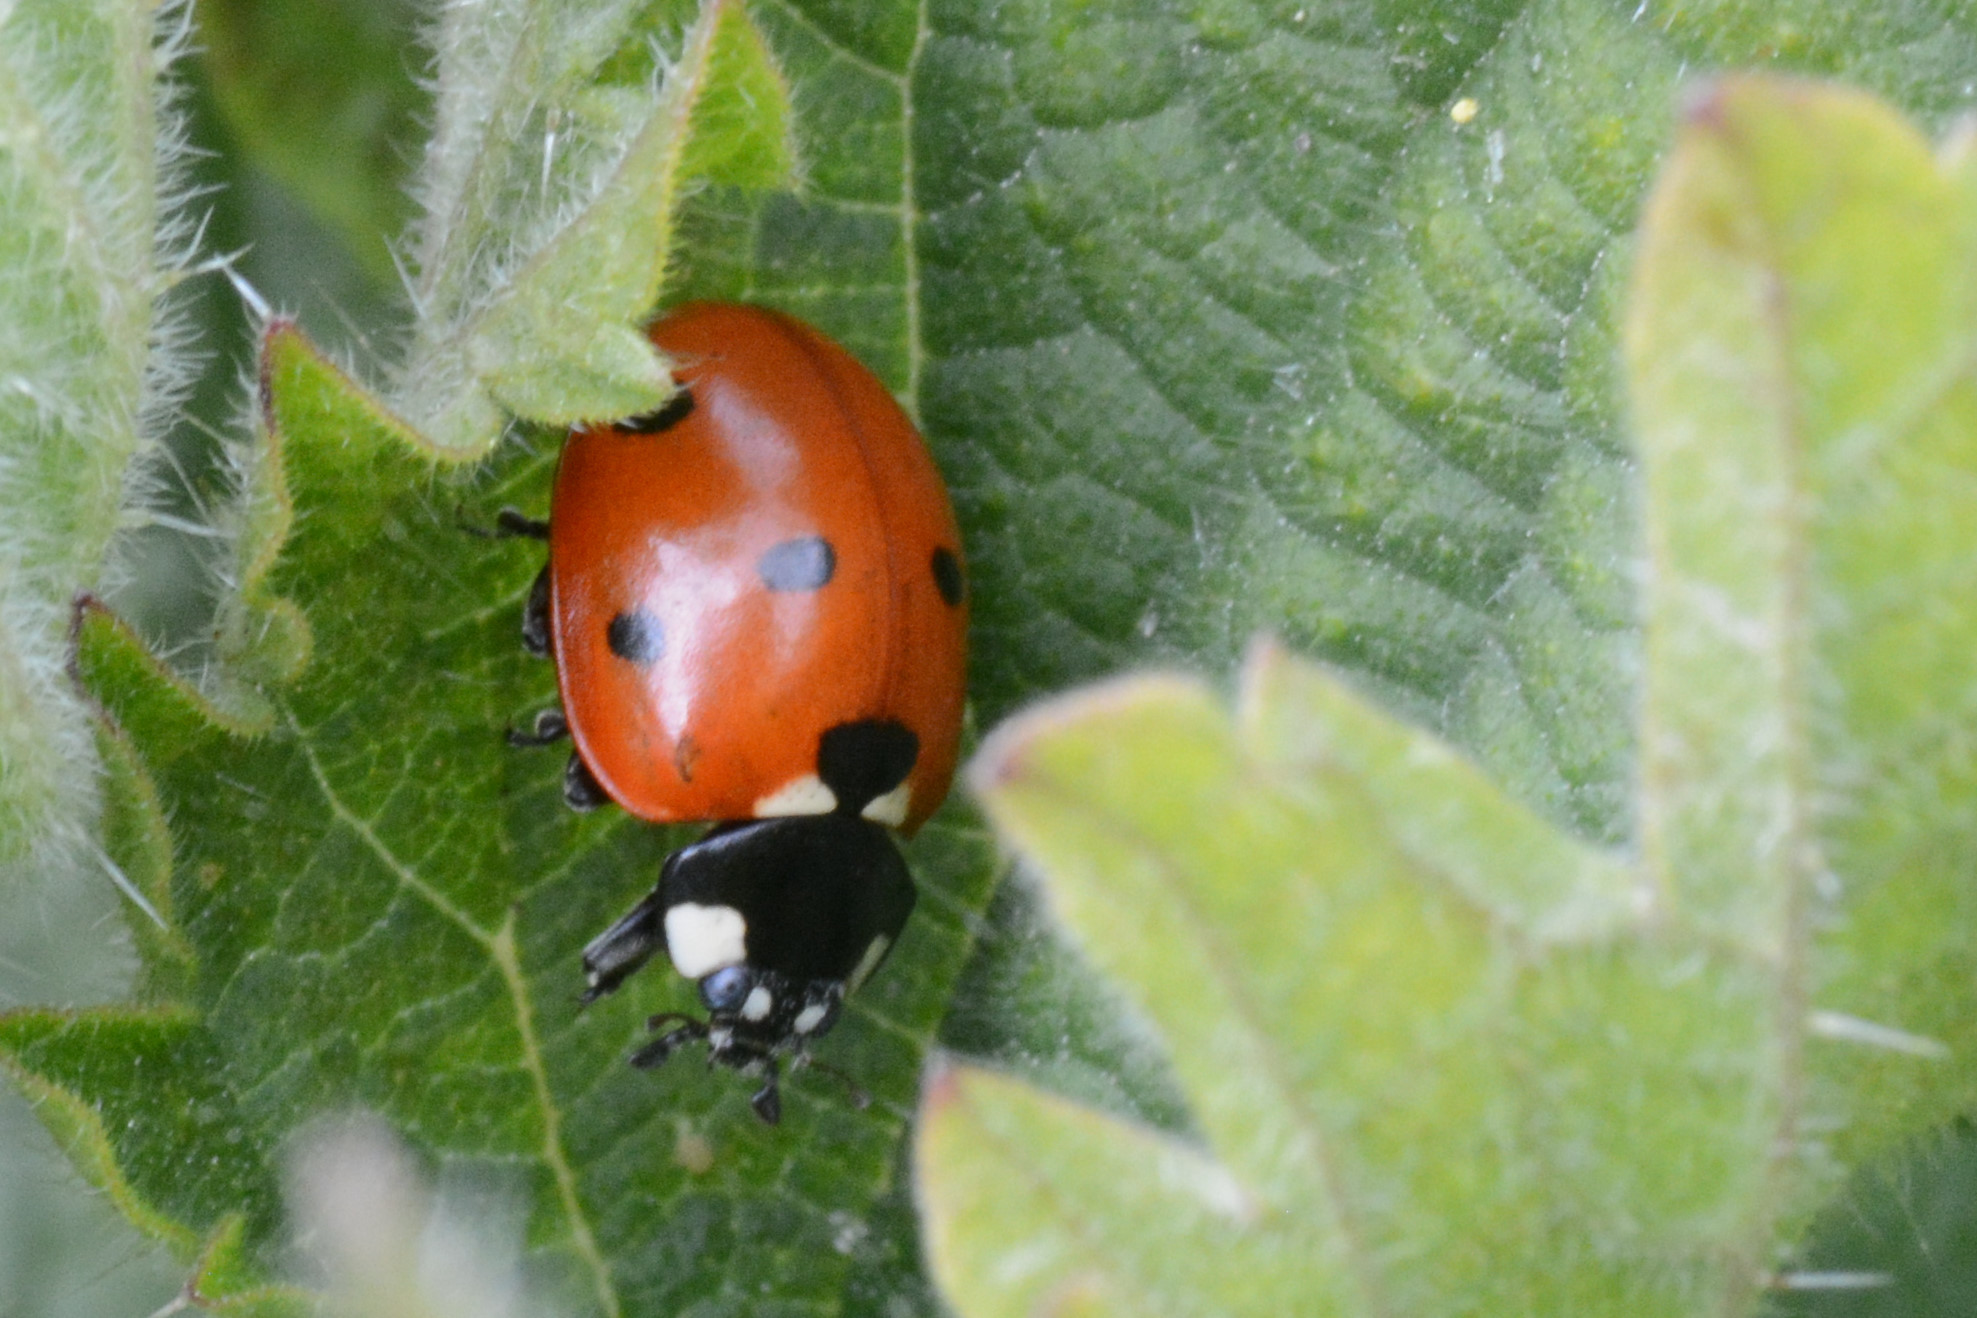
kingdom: Animalia
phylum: Arthropoda
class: Insecta
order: Coleoptera
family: Coccinellidae
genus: Coccinella
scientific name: Coccinella septempunctata
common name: Sevenspotted lady beetle
